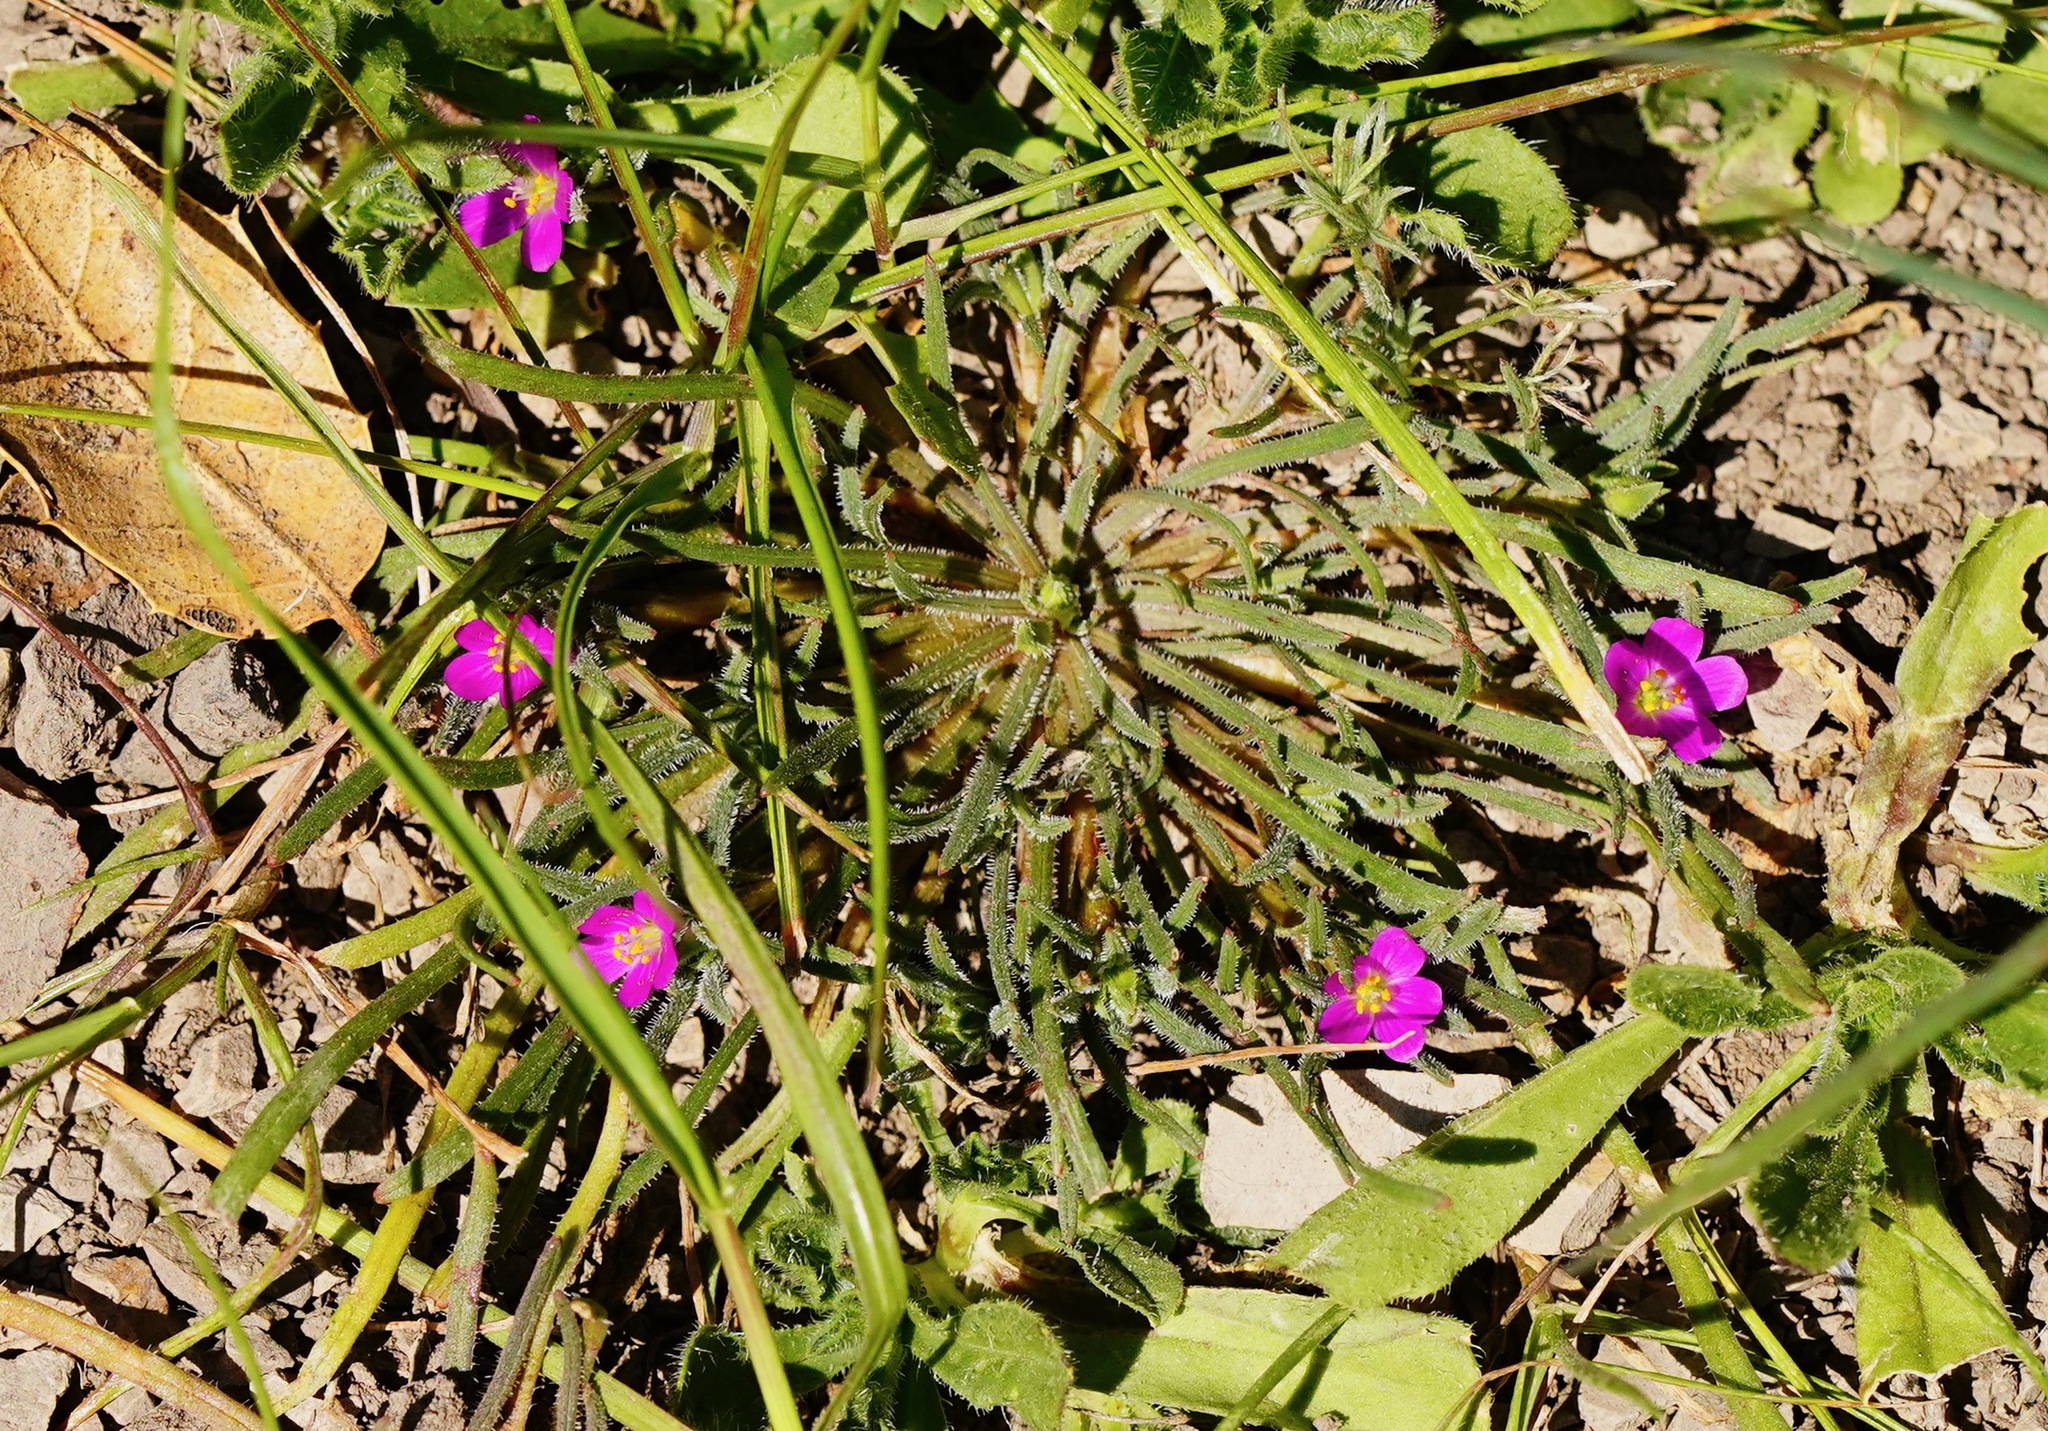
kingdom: Plantae
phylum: Tracheophyta
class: Magnoliopsida
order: Caryophyllales
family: Montiaceae
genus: Calandrinia
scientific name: Calandrinia menziesii
